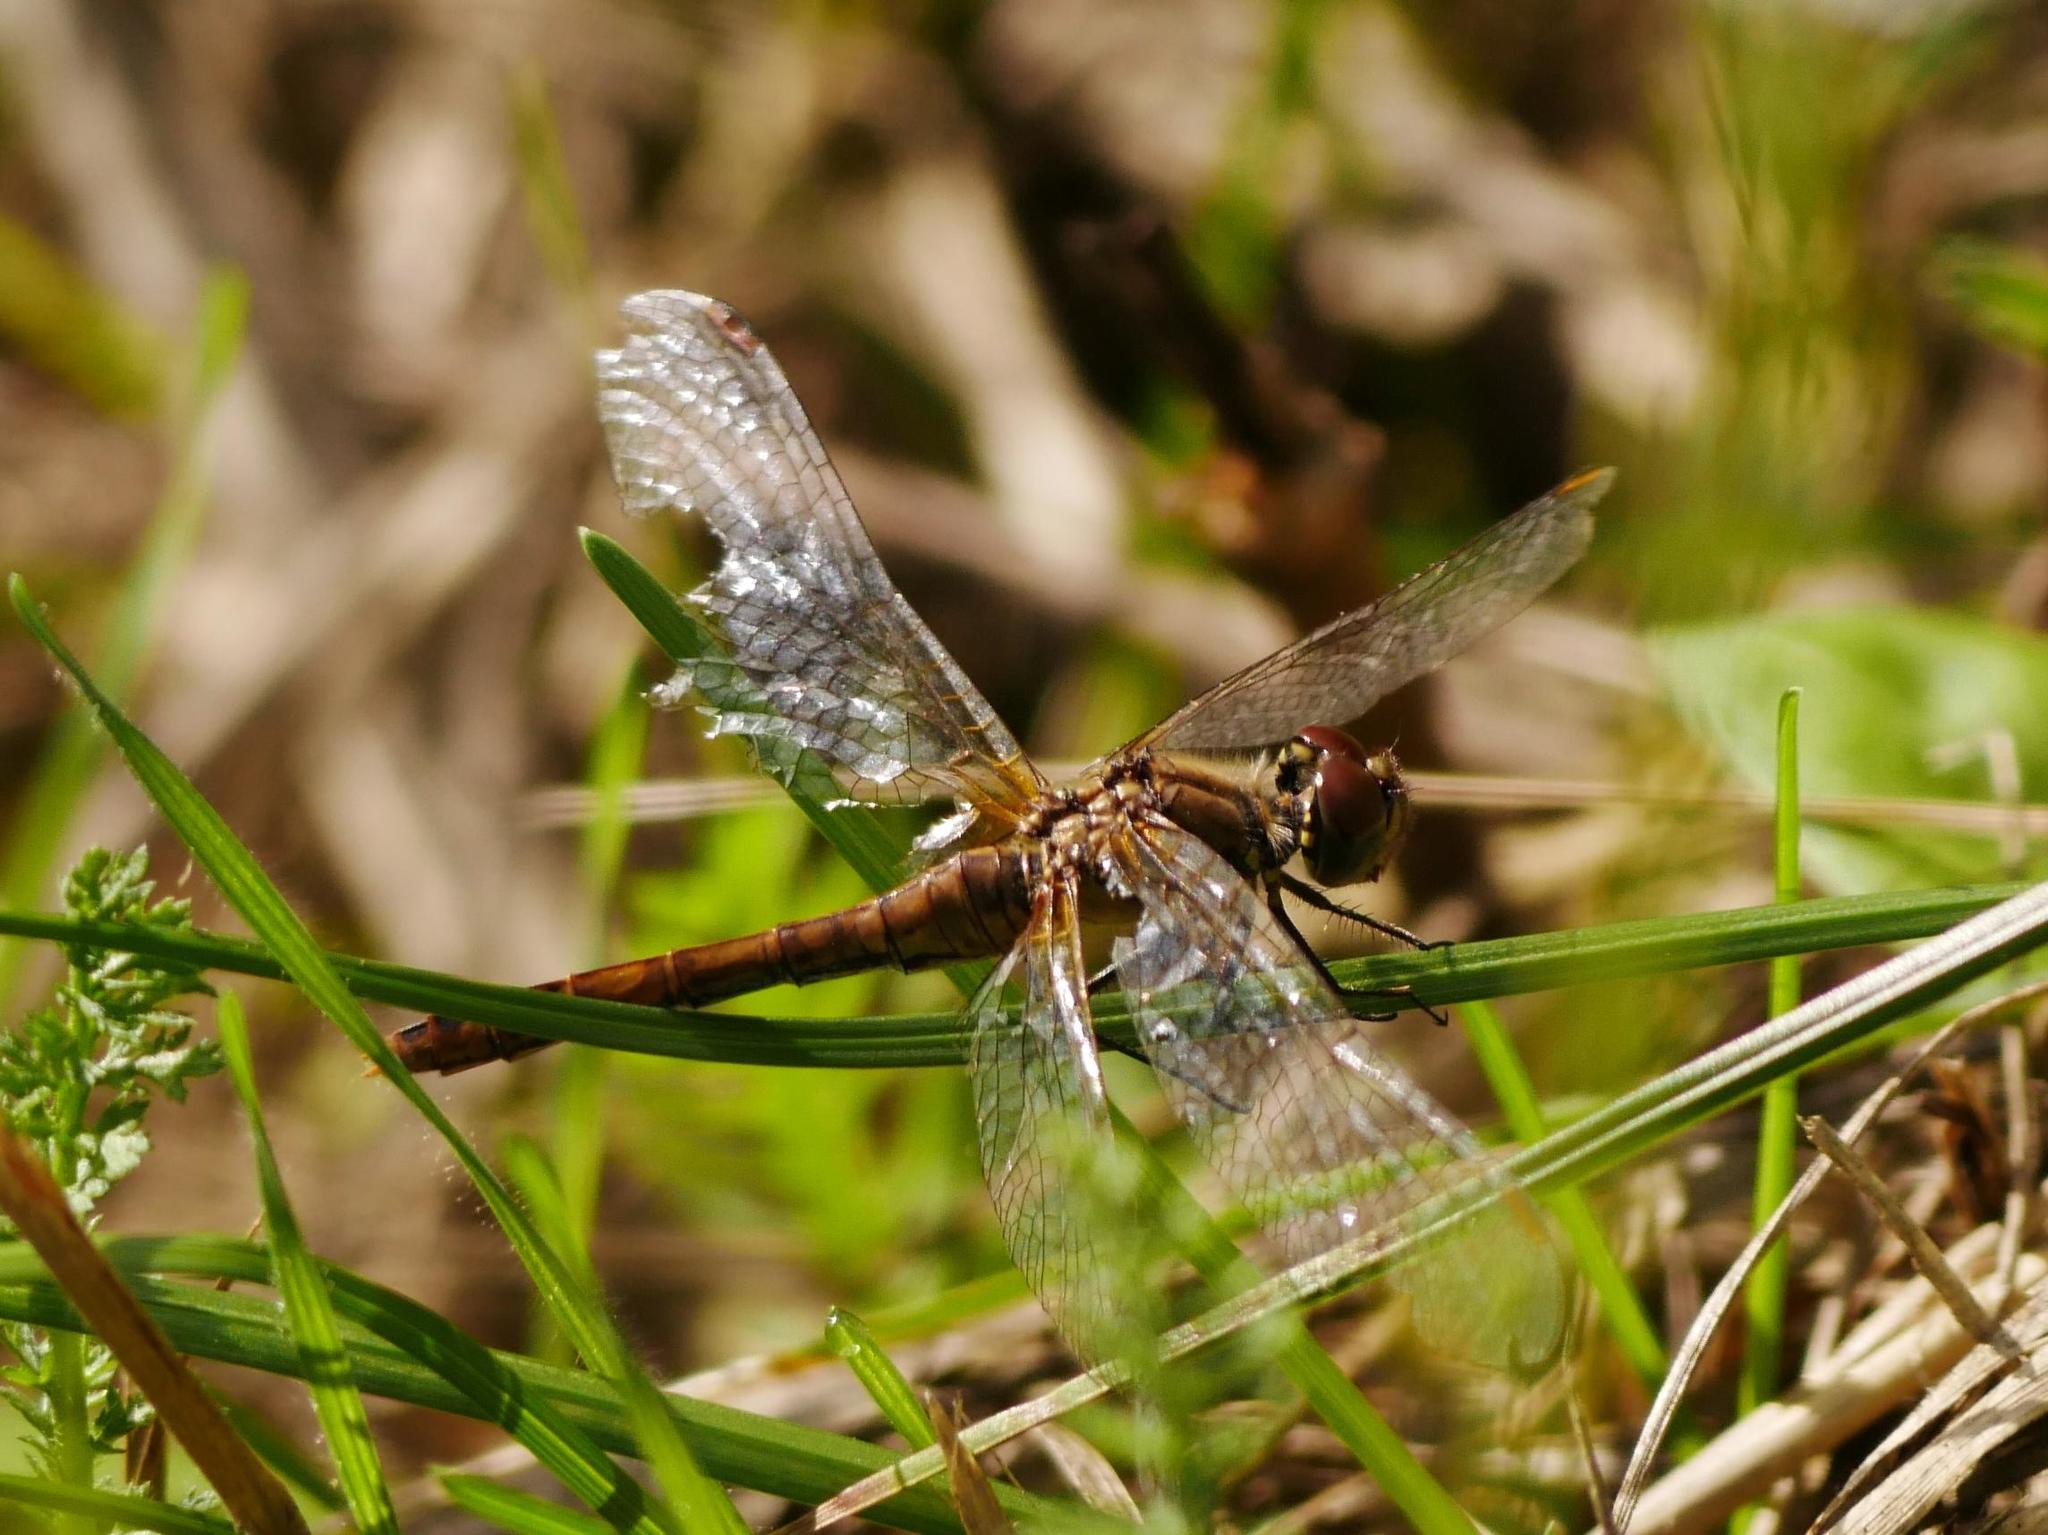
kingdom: Animalia
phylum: Arthropoda
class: Insecta
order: Odonata
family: Libellulidae
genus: Sympetrum
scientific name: Sympetrum sanguineum
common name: Ruddy darter
